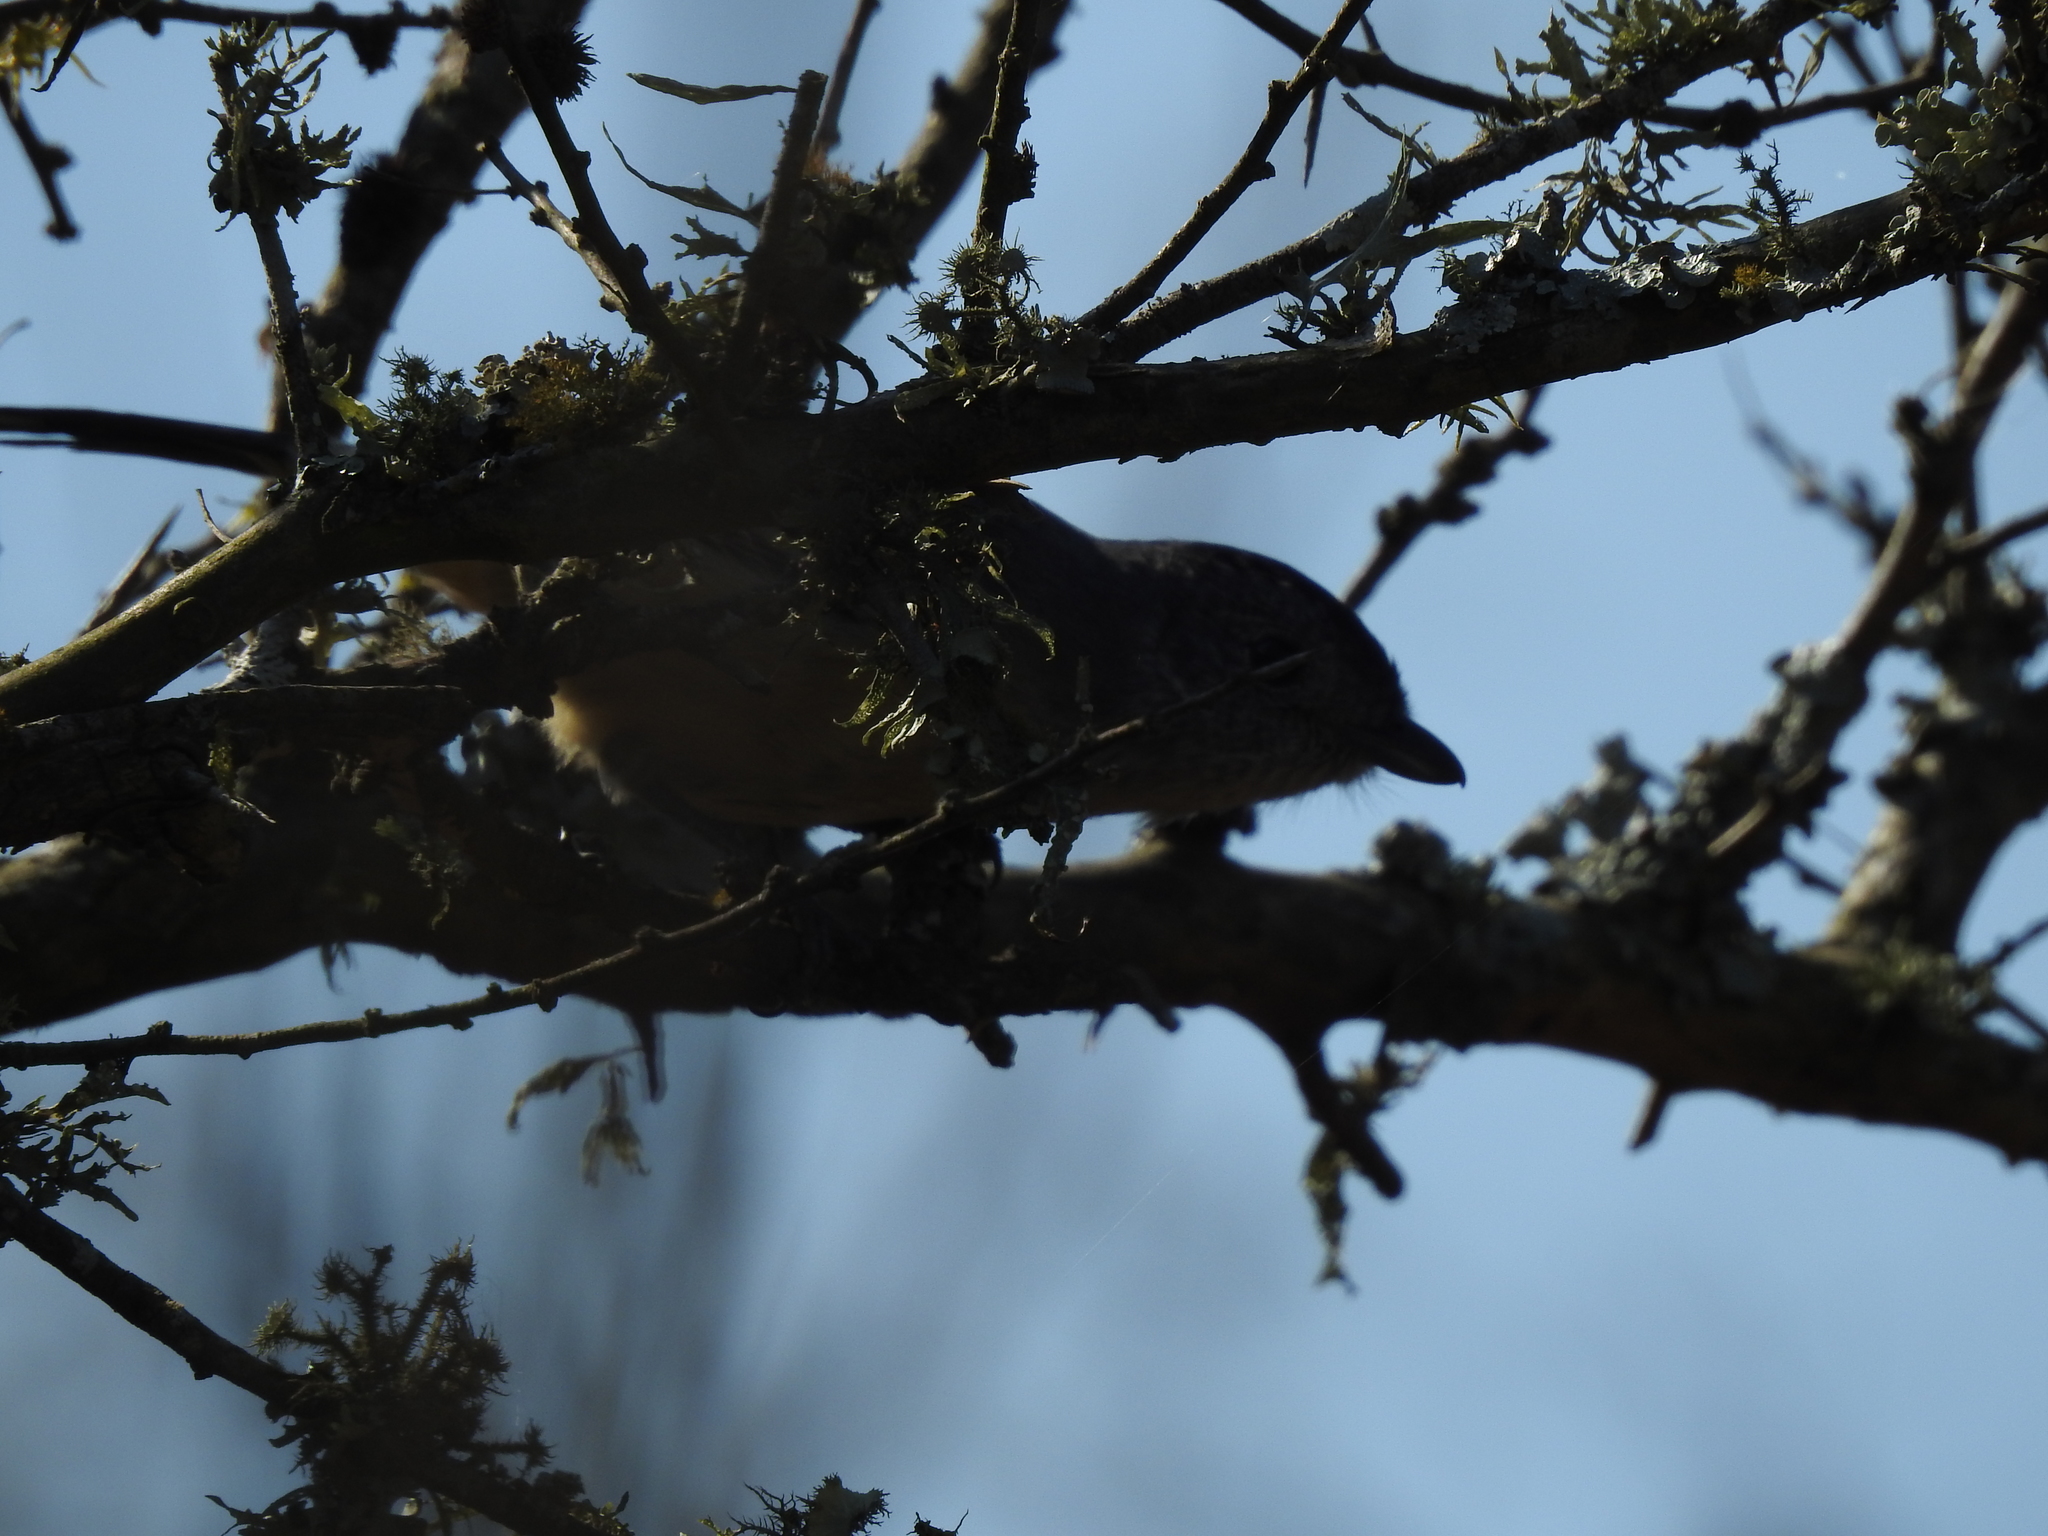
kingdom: Animalia
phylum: Chordata
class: Aves
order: Passeriformes
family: Thamnophilidae
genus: Thamnophilus
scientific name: Thamnophilus caerulescens
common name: Variable antshrike
